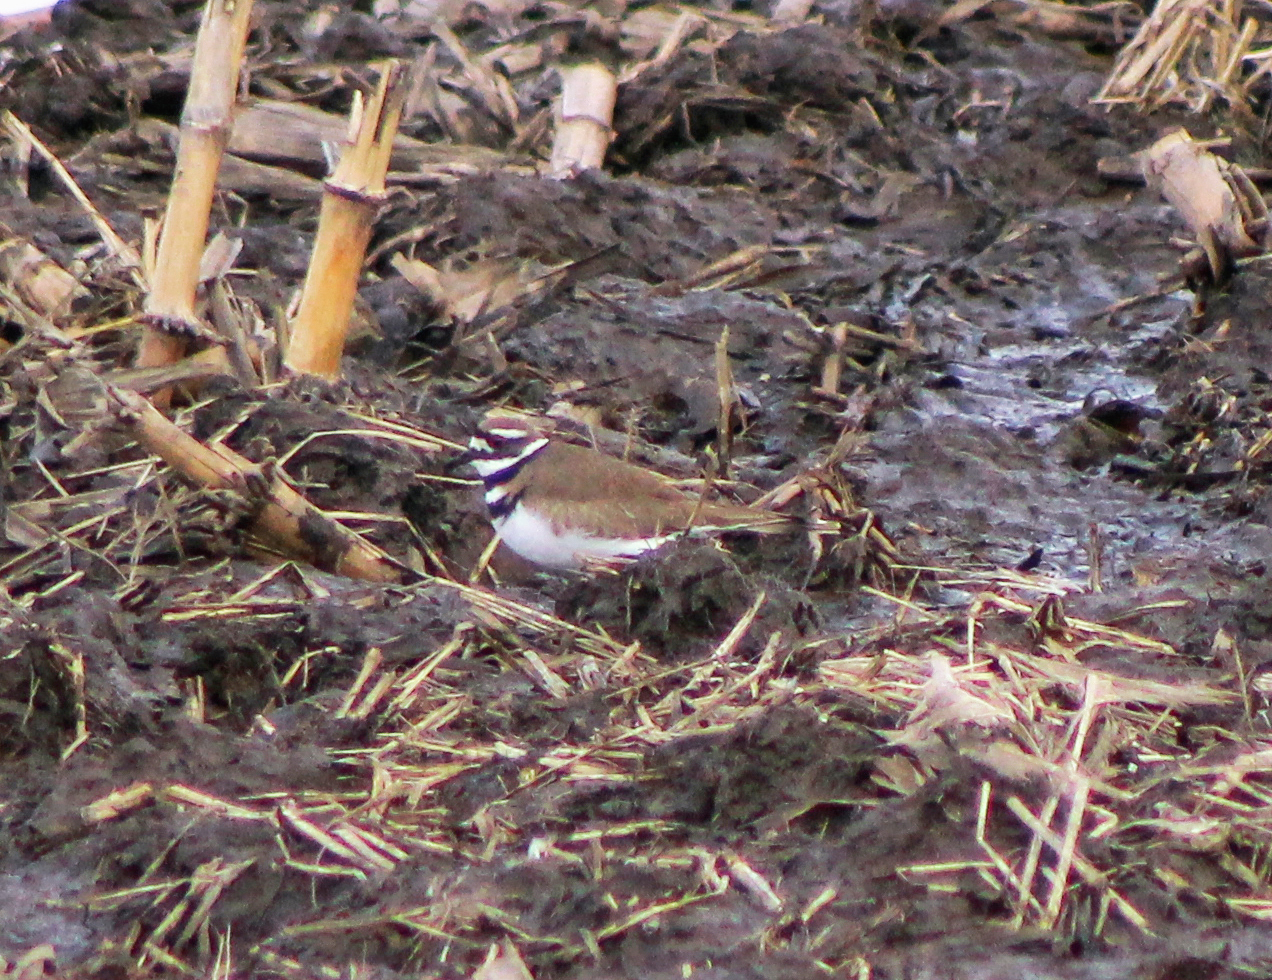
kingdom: Animalia
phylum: Chordata
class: Aves
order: Charadriiformes
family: Charadriidae
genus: Charadrius
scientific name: Charadrius vociferus
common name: Killdeer
